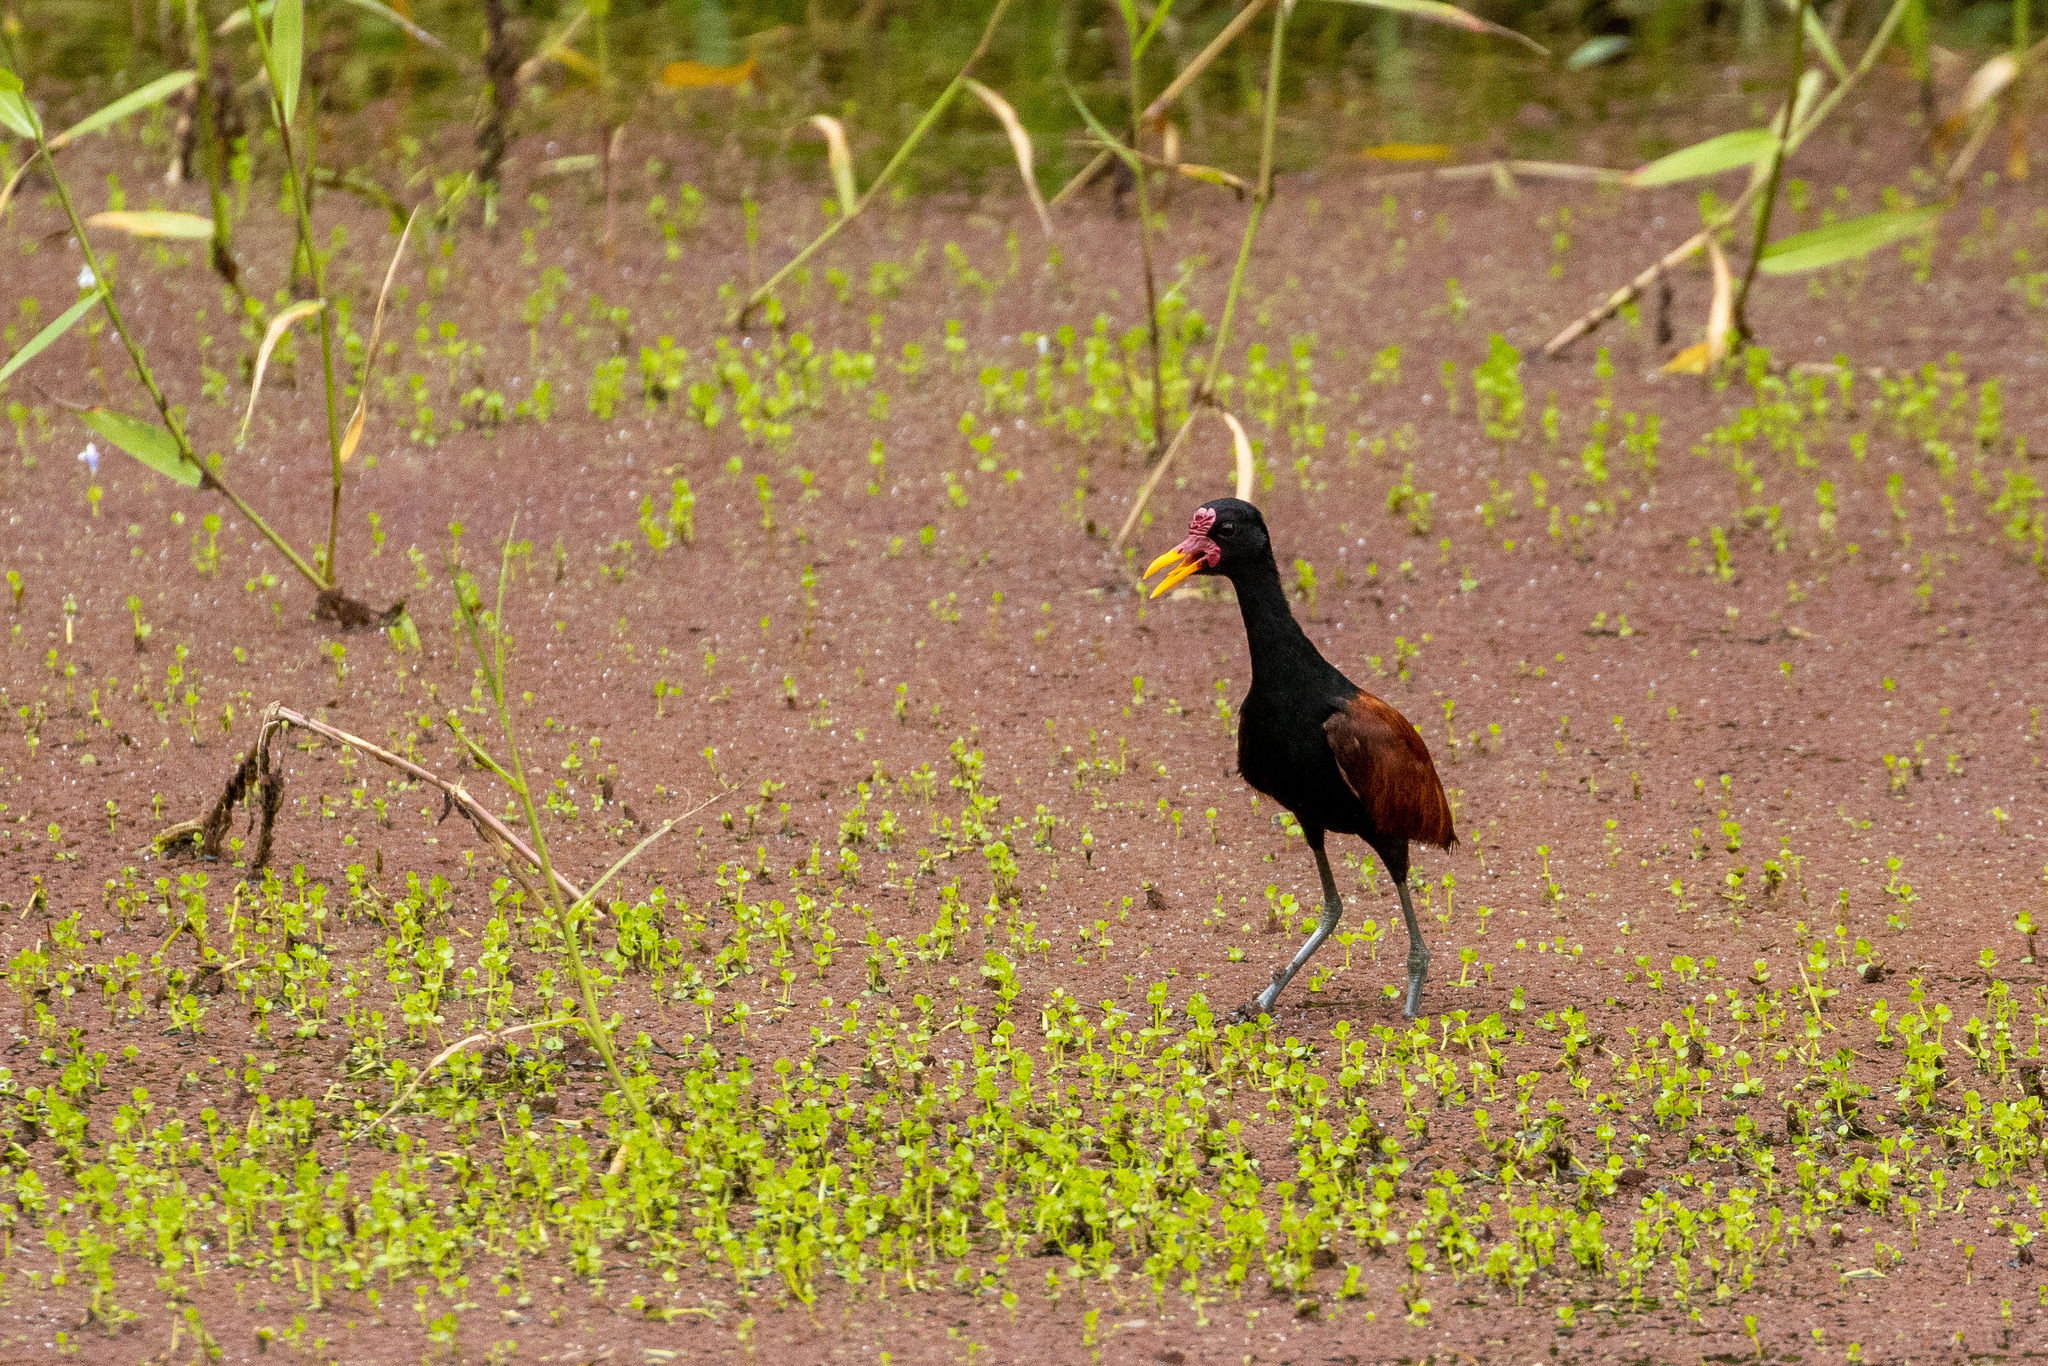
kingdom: Animalia
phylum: Chordata
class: Aves
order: Charadriiformes
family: Jacanidae
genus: Jacana
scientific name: Jacana jacana
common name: Wattled jacana
